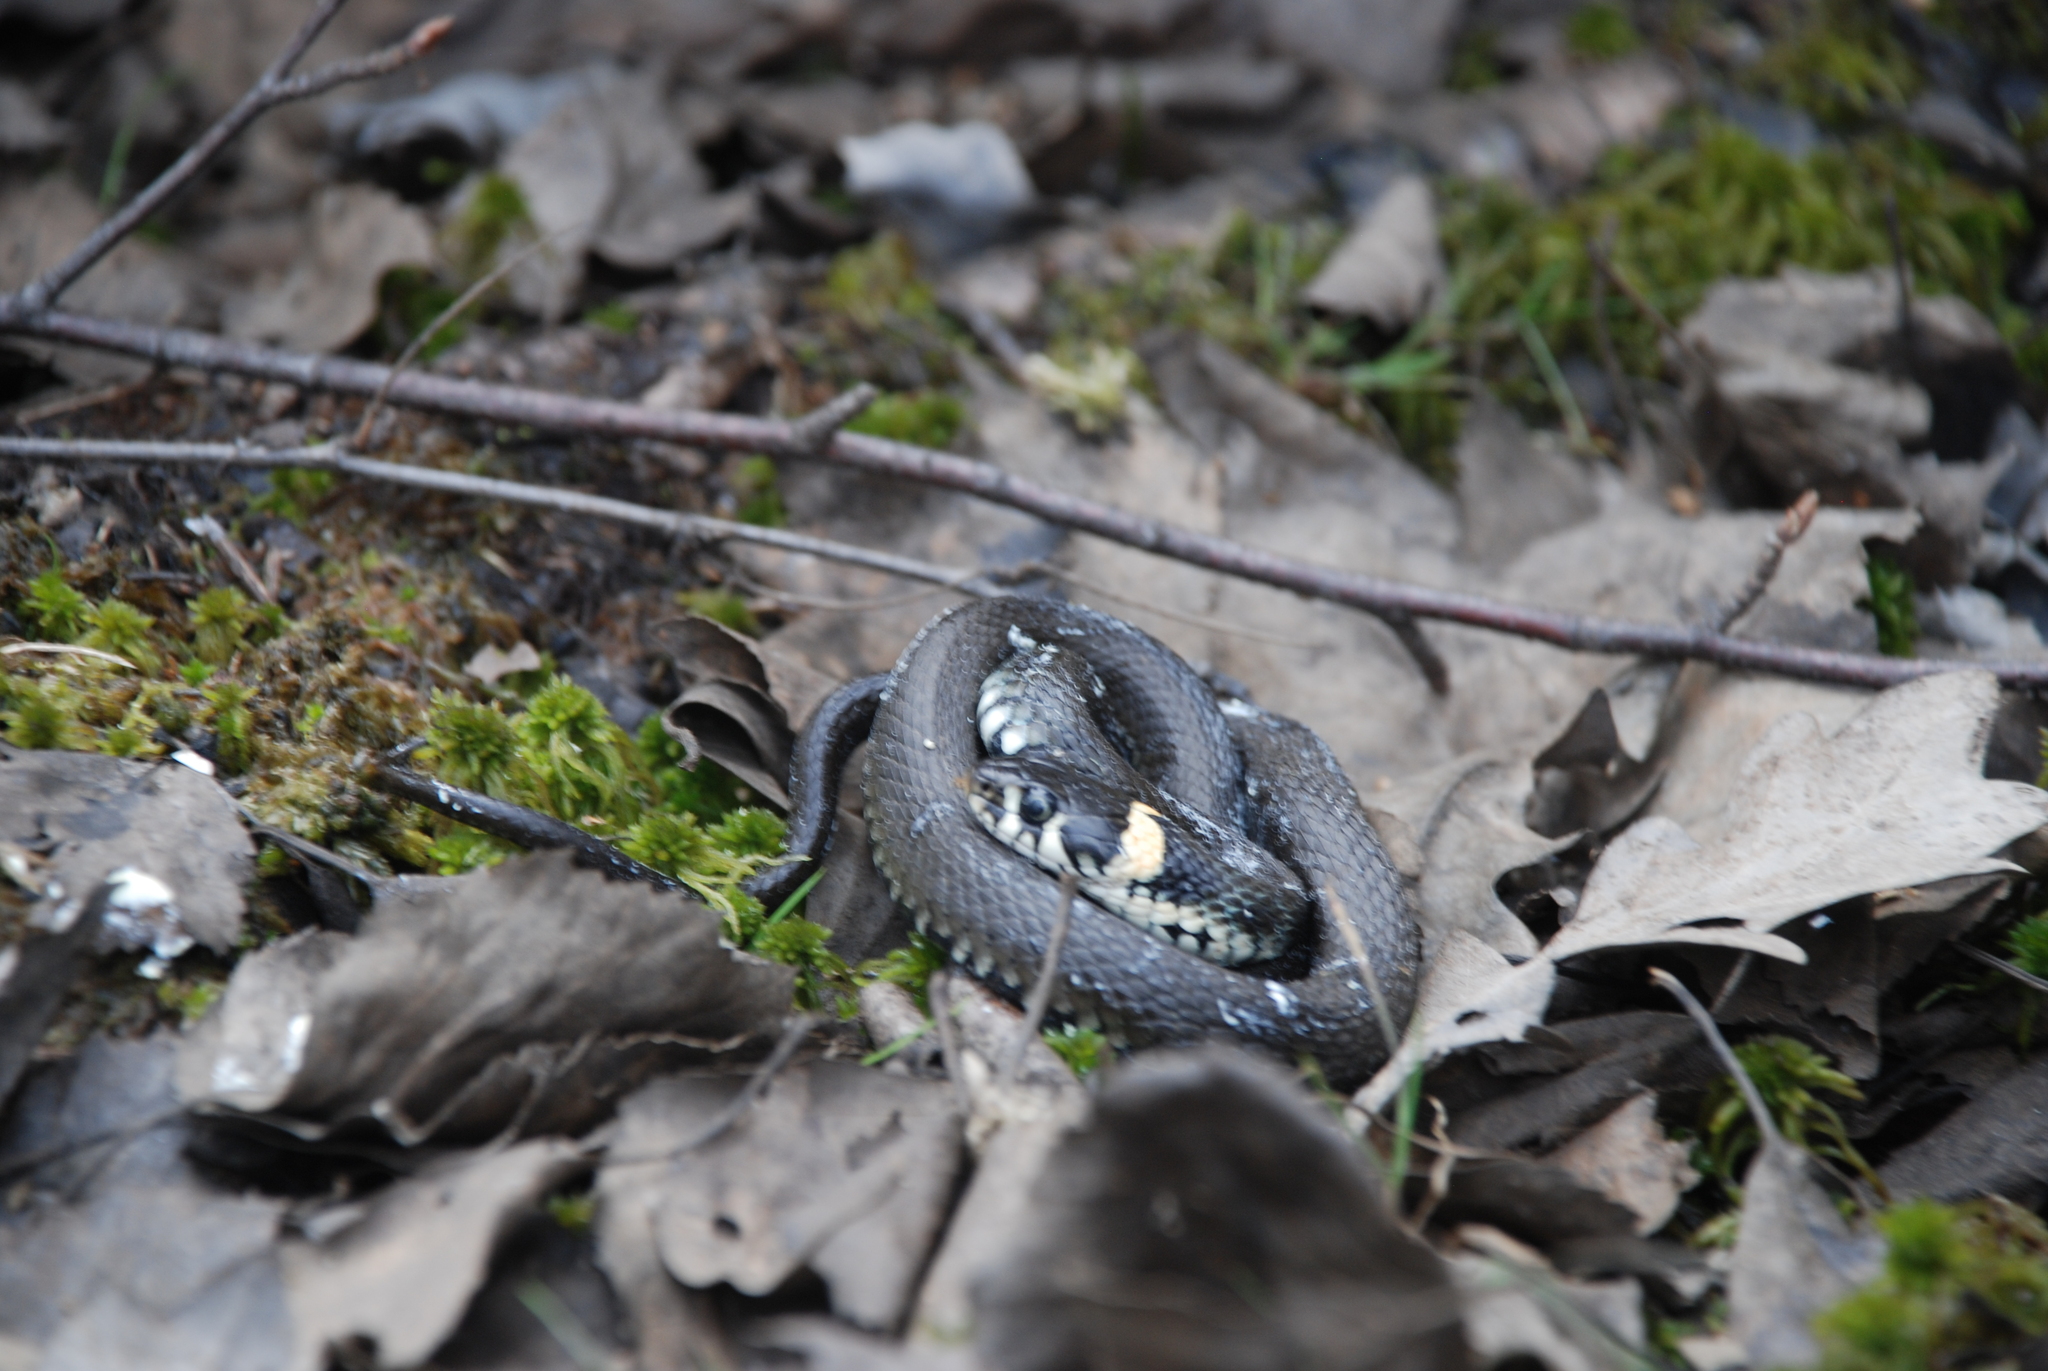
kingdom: Animalia
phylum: Chordata
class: Squamata
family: Colubridae
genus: Natrix
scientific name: Natrix natrix
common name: Grass snake
